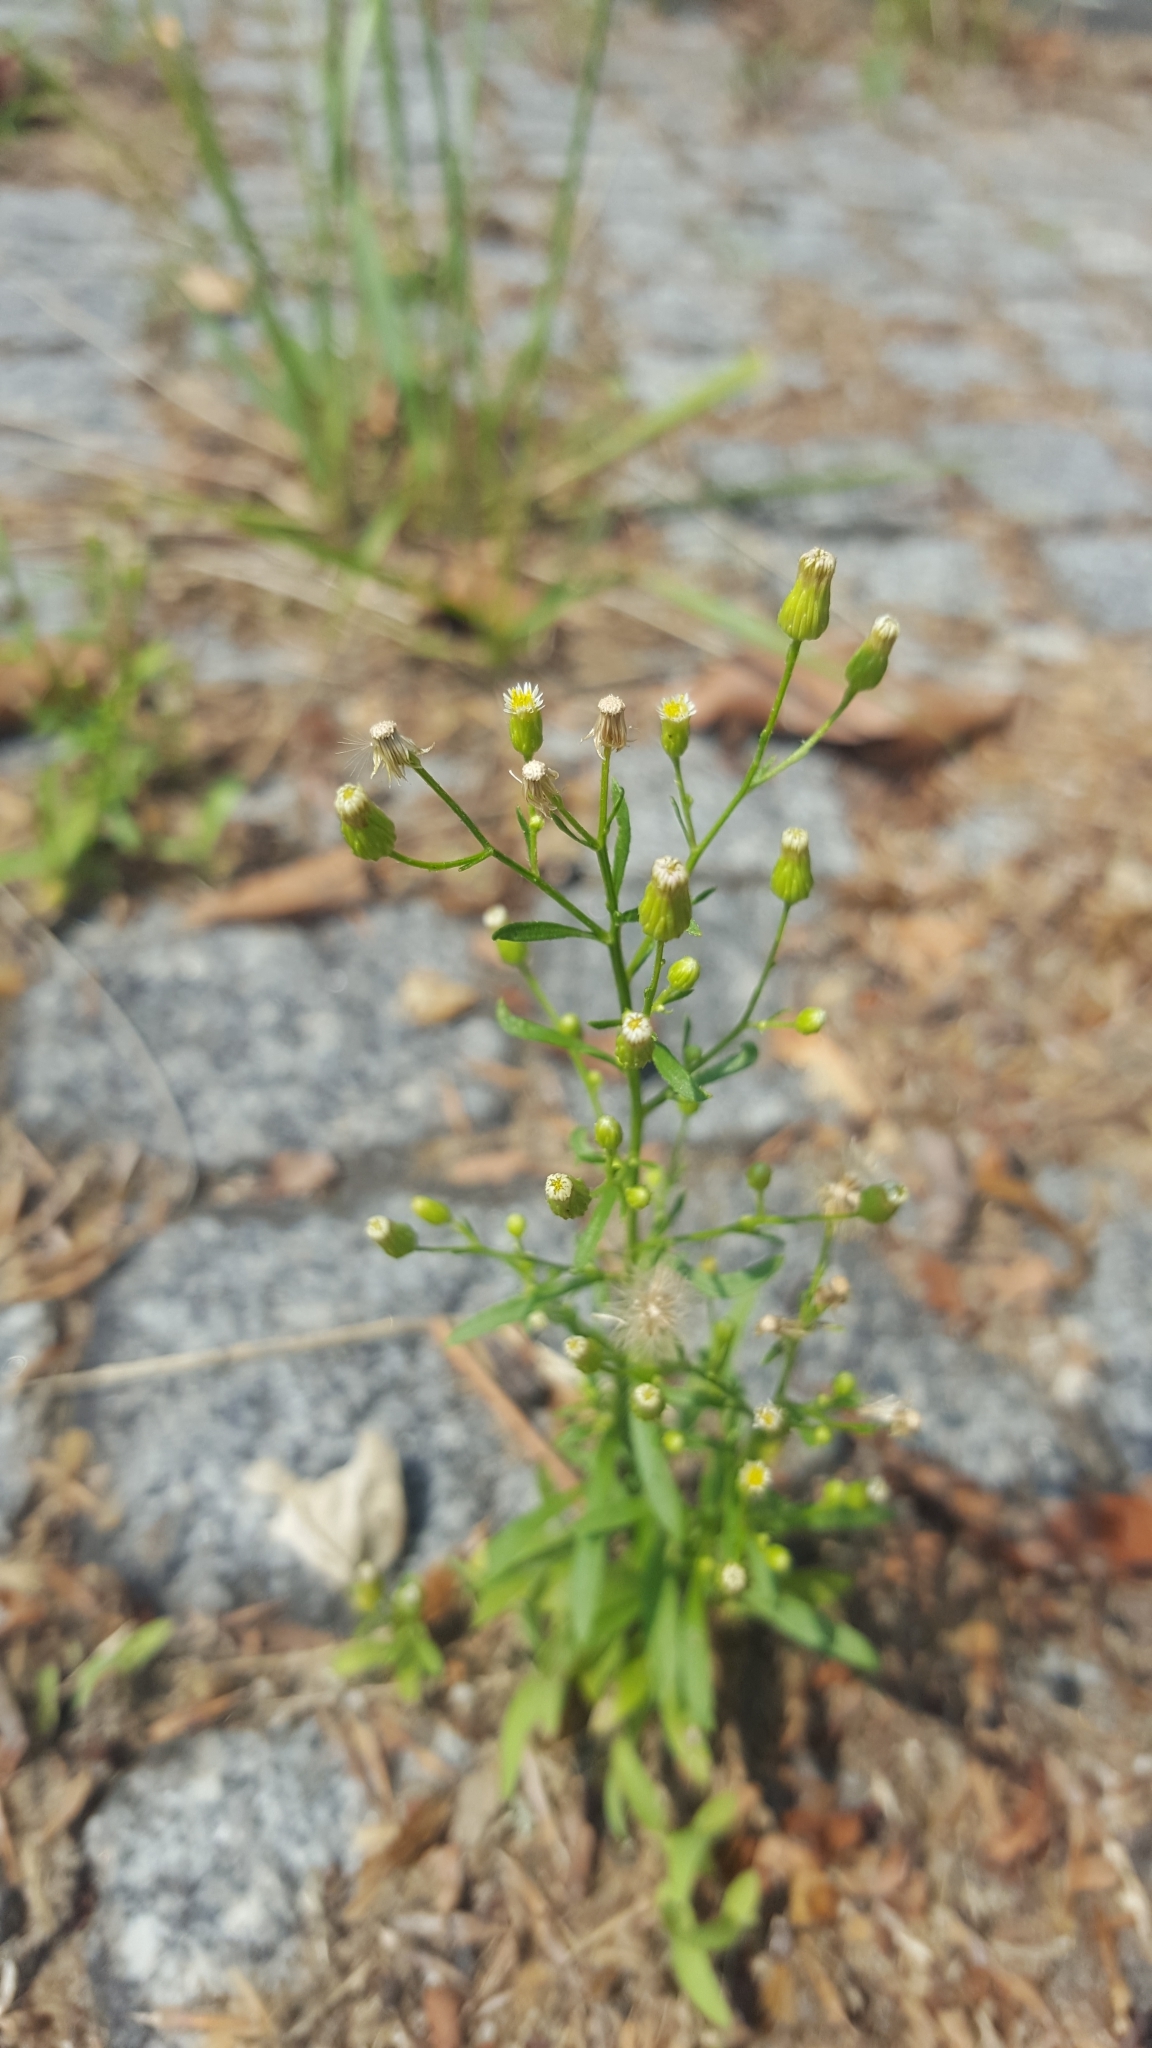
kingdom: Plantae
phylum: Tracheophyta
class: Magnoliopsida
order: Asterales
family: Asteraceae
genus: Erigeron
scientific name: Erigeron canadensis
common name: Canadian fleabane
